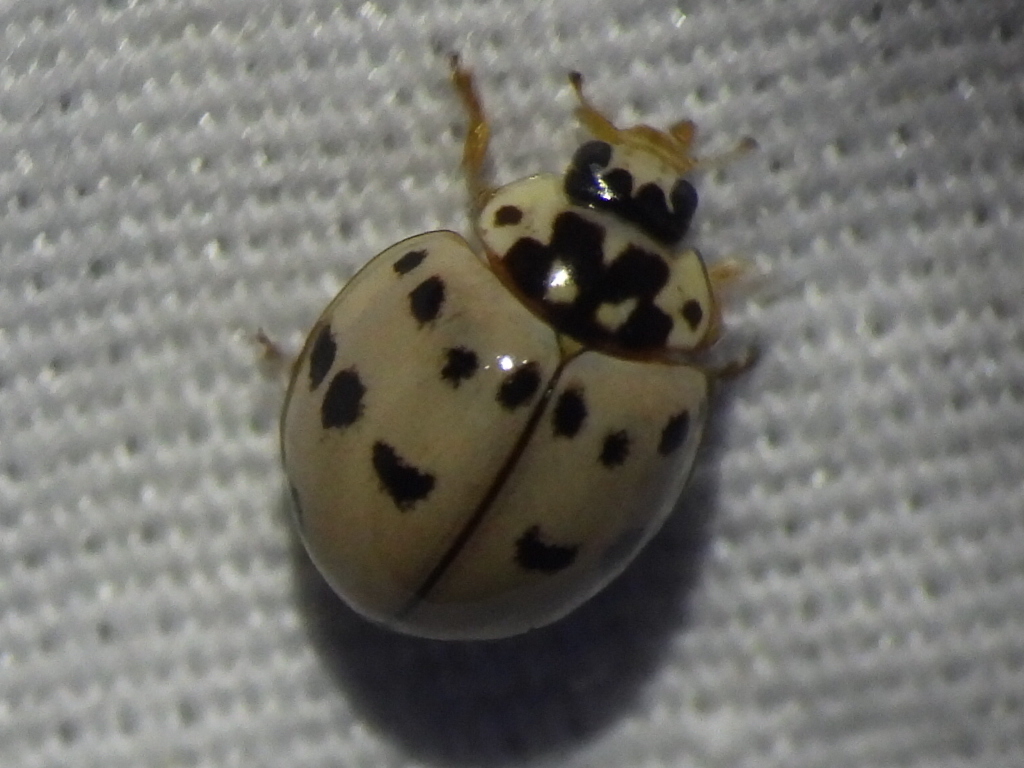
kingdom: Animalia
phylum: Arthropoda
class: Insecta
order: Coleoptera
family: Coccinellidae
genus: Olla
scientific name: Olla v-nigrum
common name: Ashy gray lady beetle
